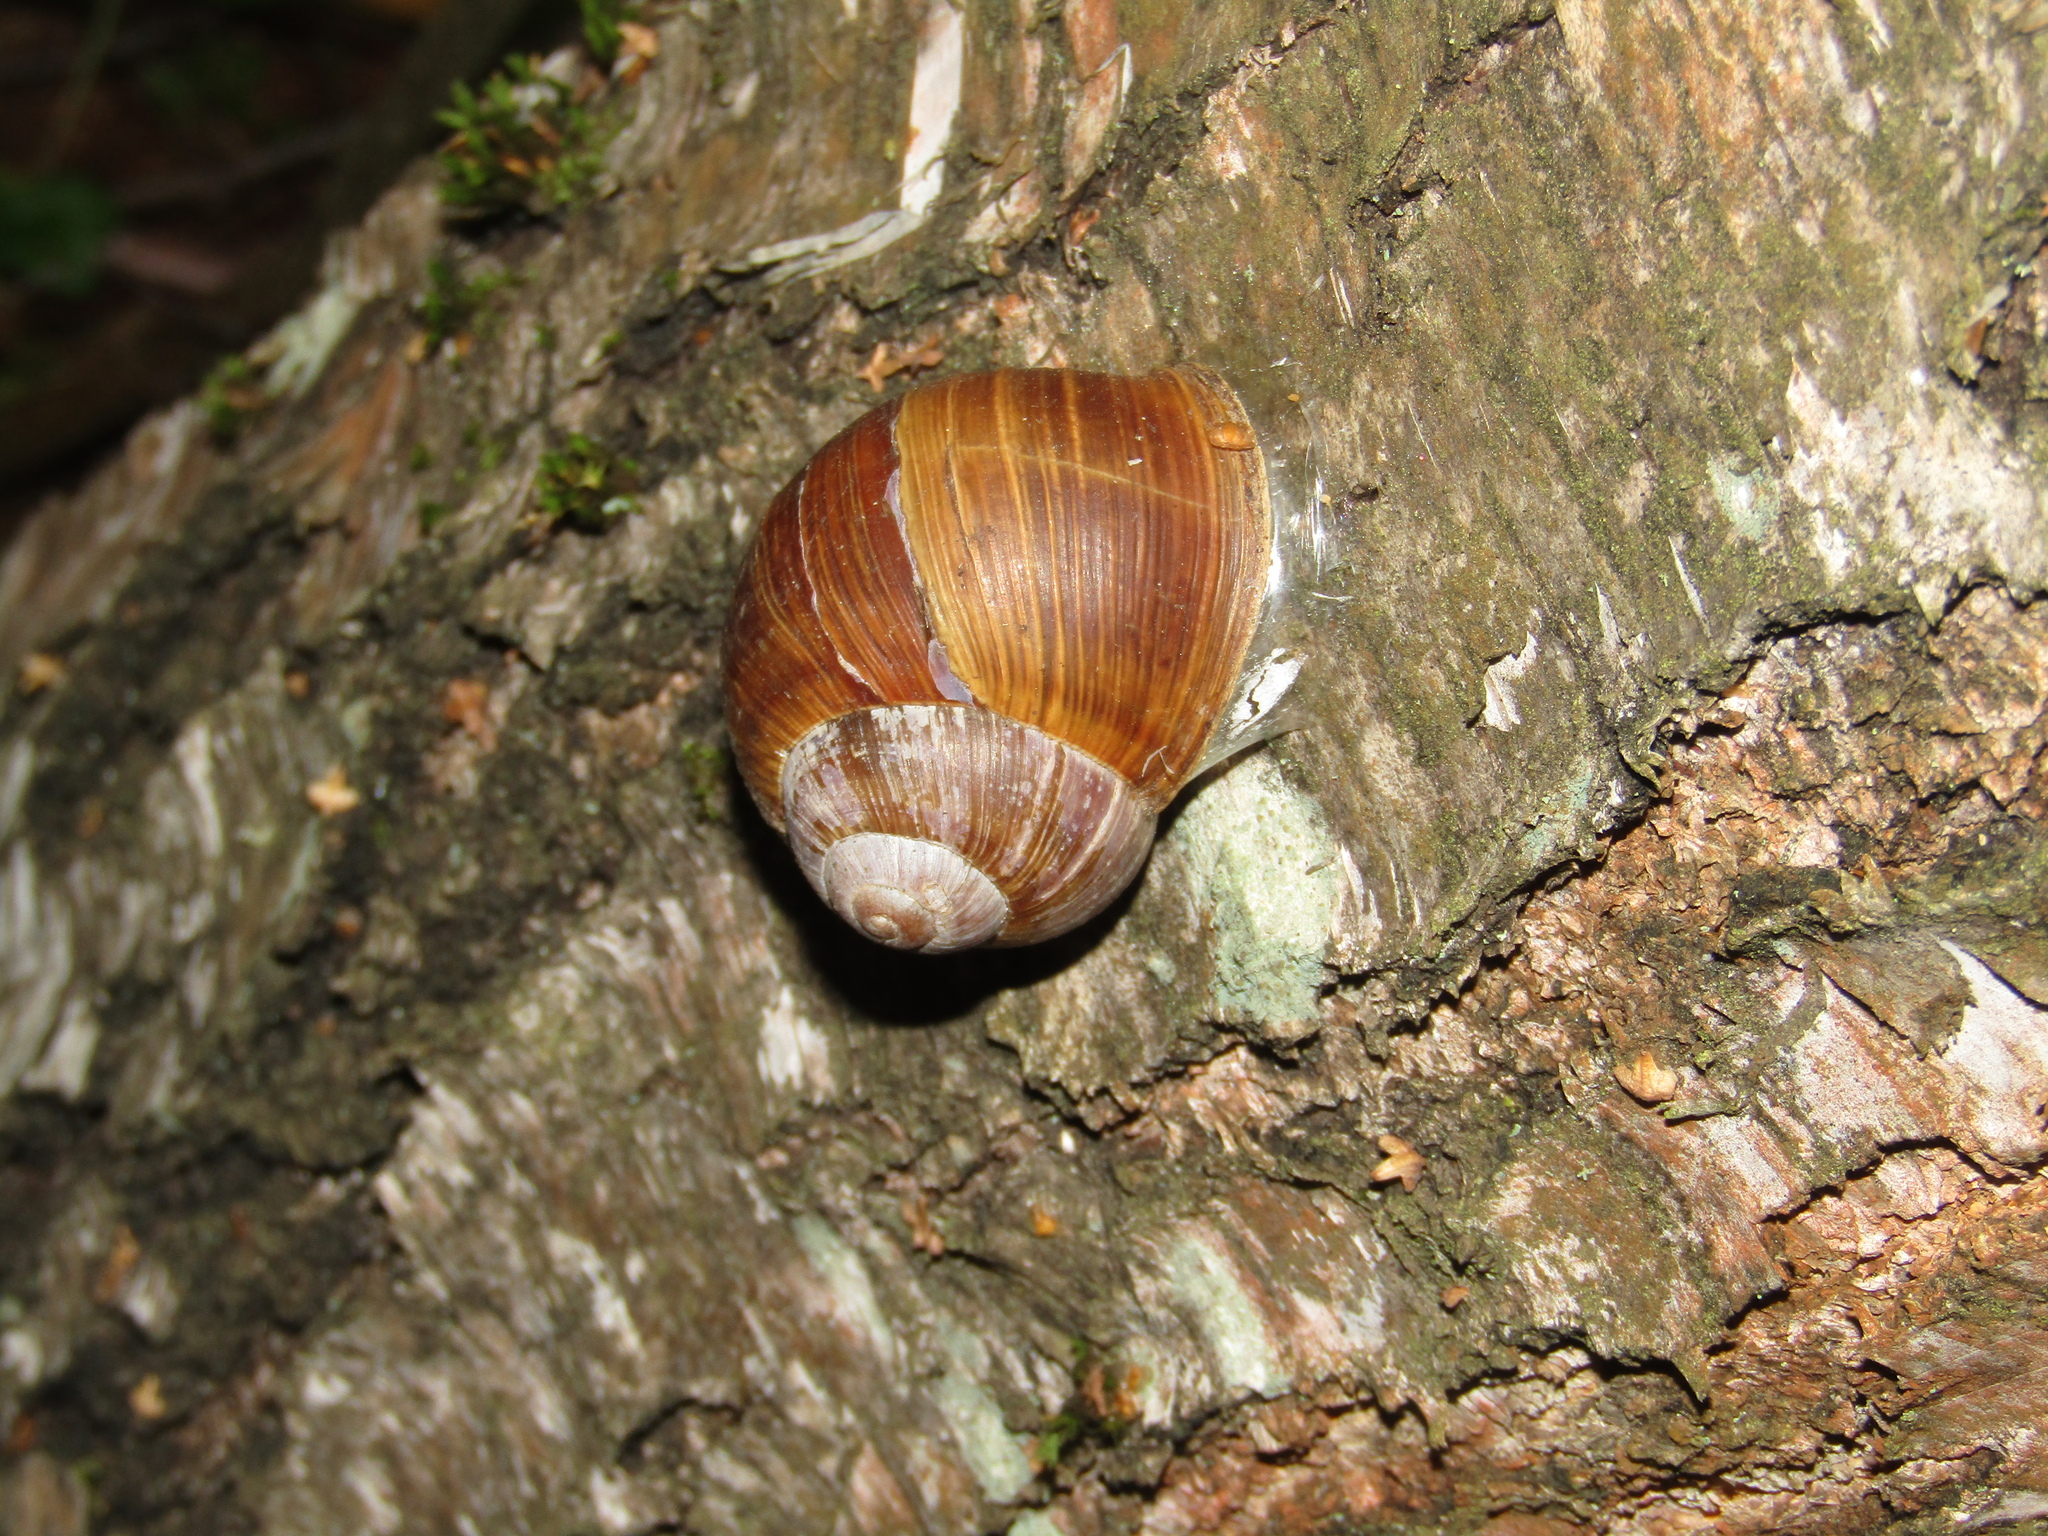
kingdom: Animalia
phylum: Mollusca
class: Gastropoda
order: Stylommatophora
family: Helicidae
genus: Helix
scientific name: Helix pomatia
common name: Roman snail
